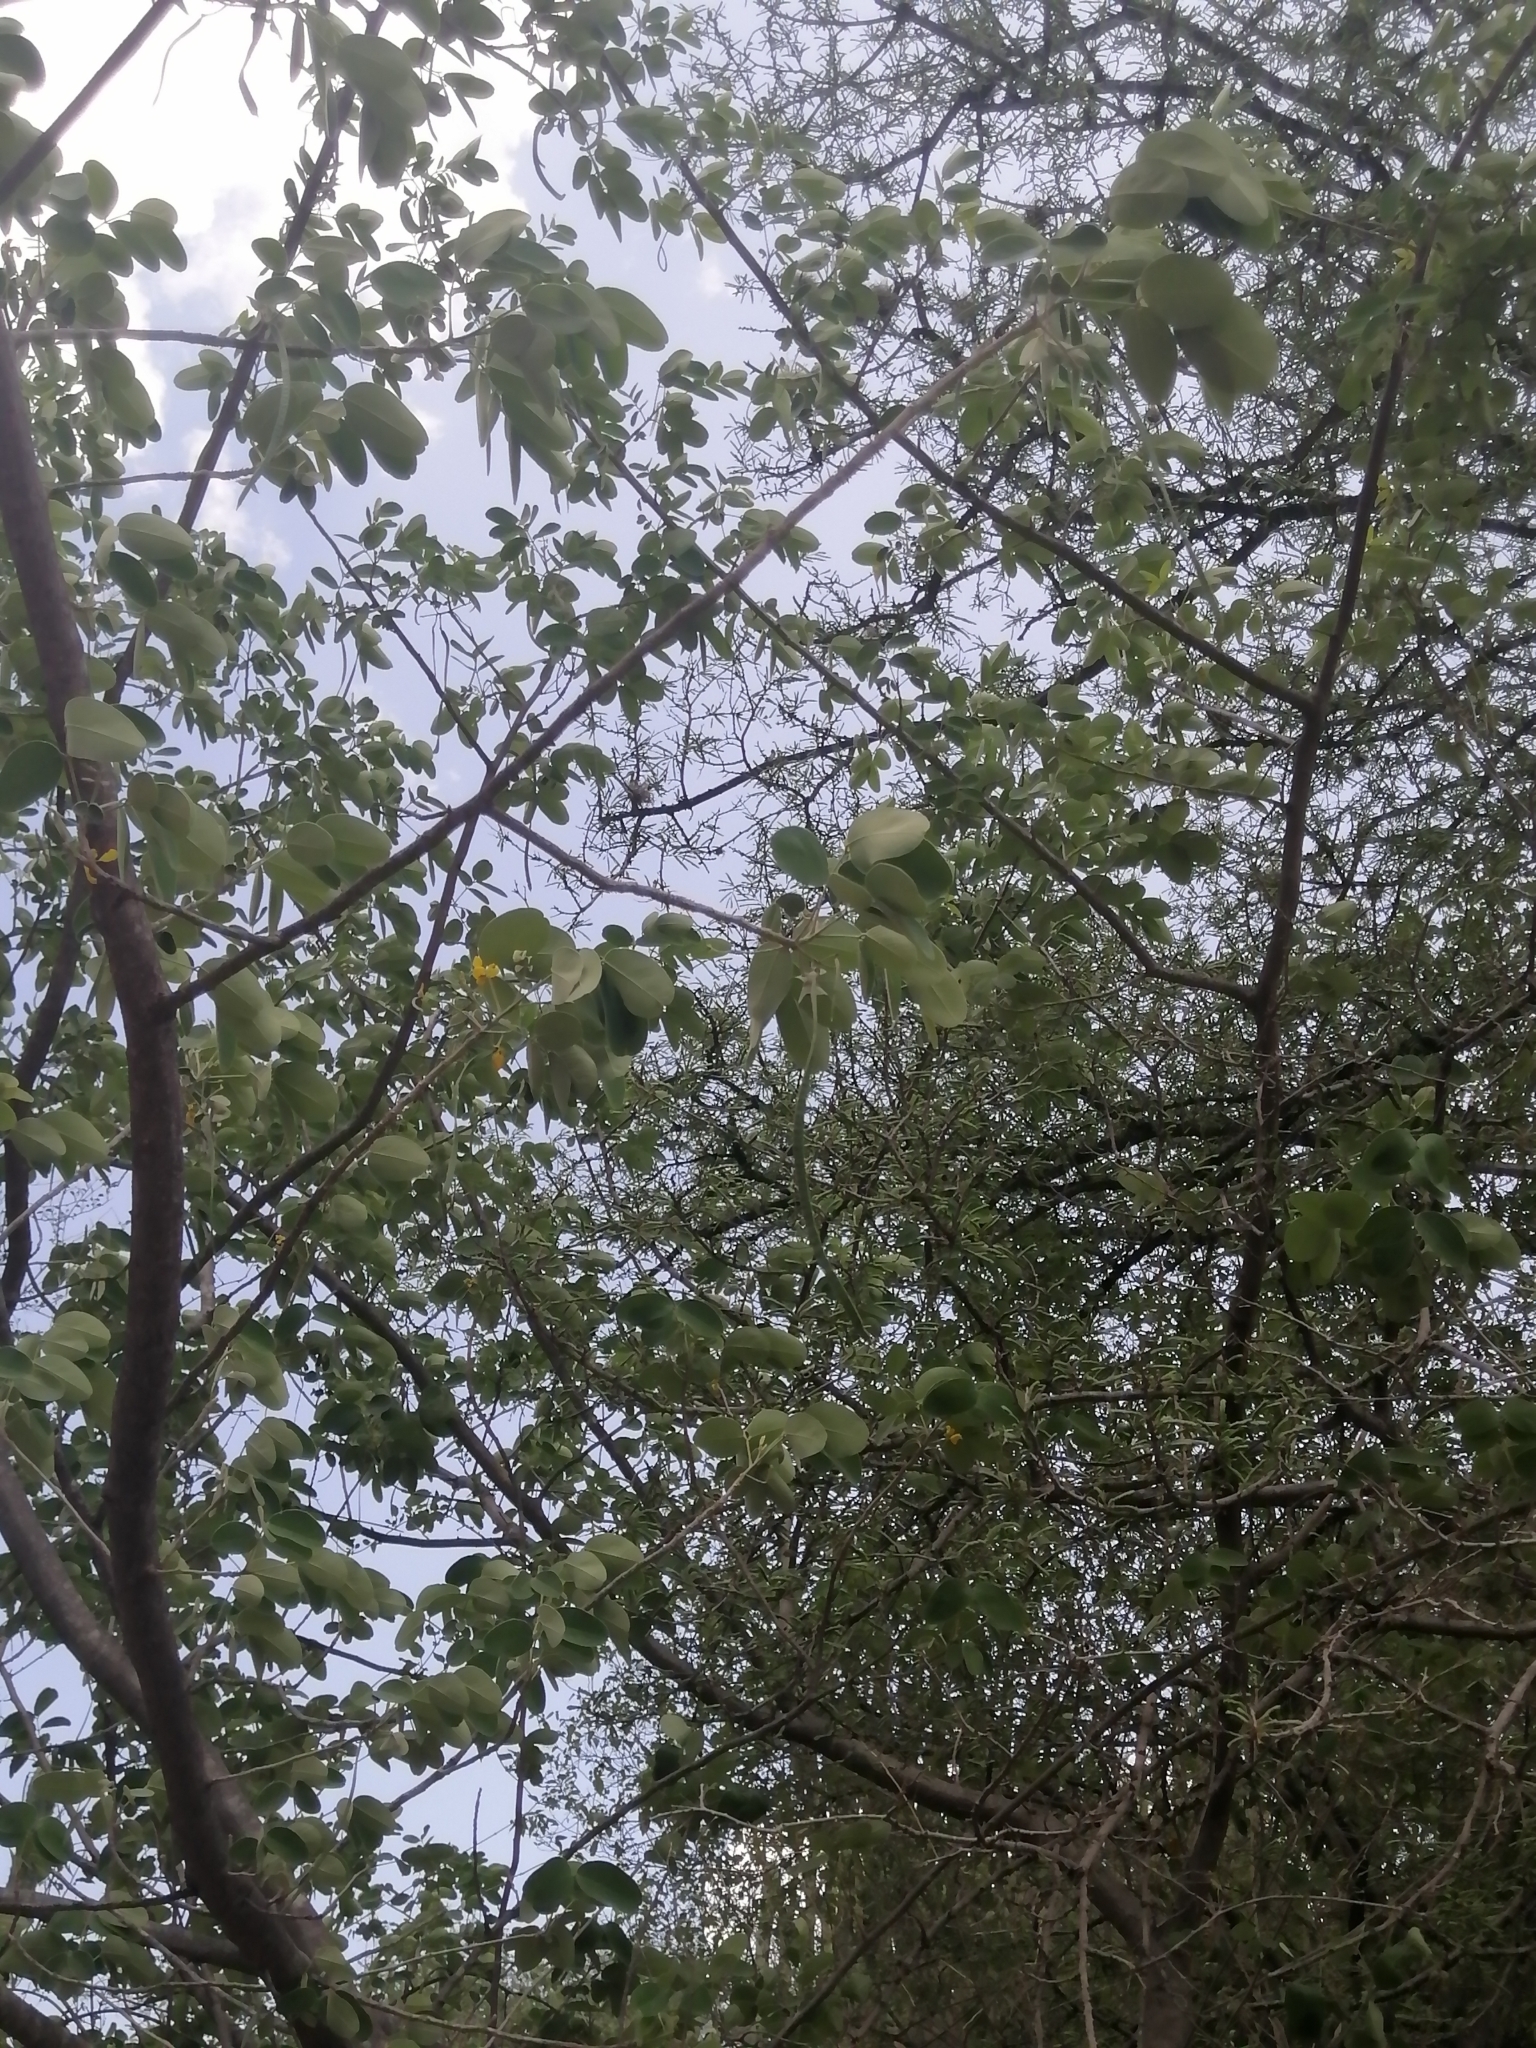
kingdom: Plantae
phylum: Tracheophyta
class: Magnoliopsida
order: Fabales
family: Fabaceae
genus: Senna
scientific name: Senna atomaria
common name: Flor de san jose
